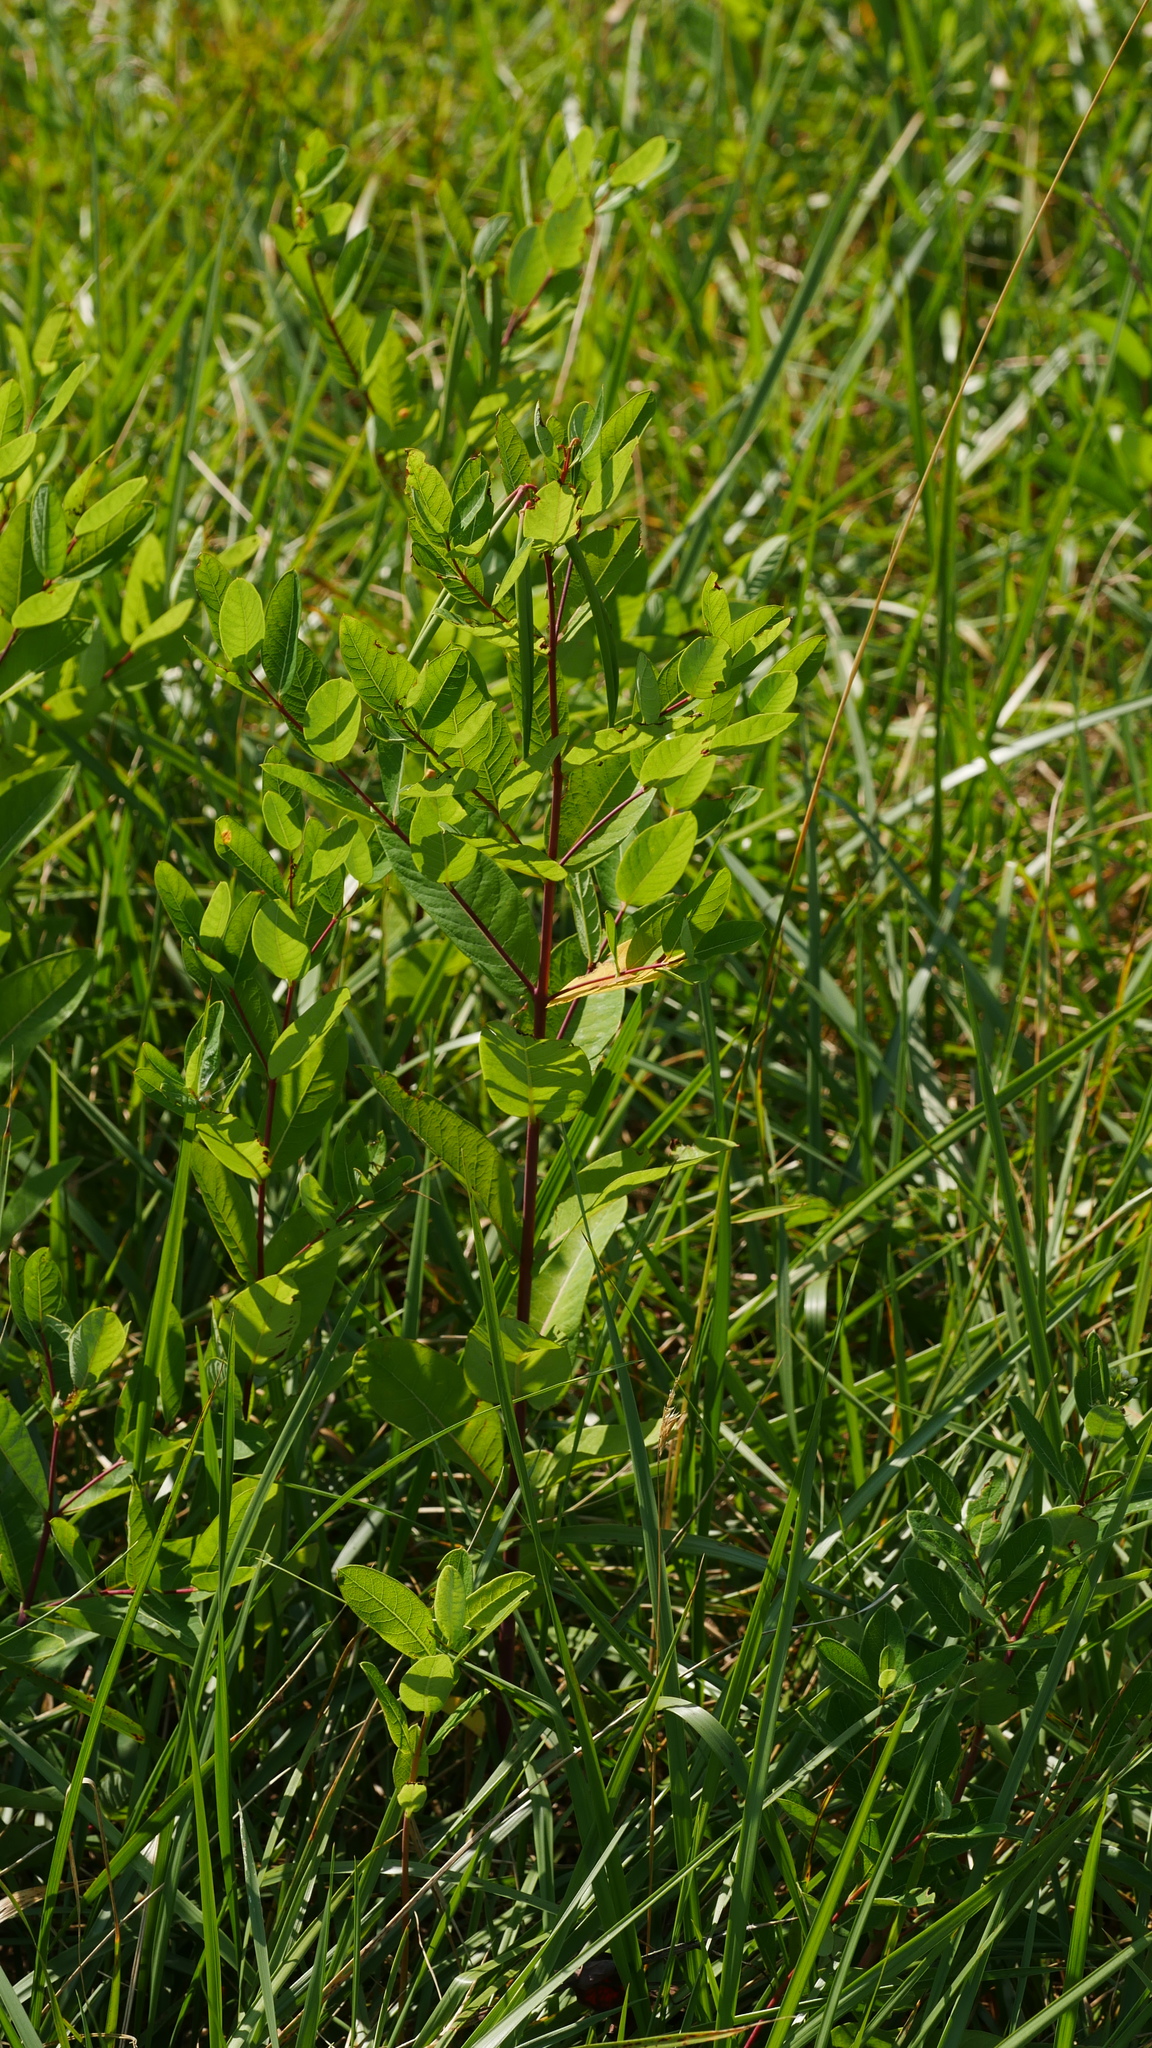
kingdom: Plantae
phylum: Tracheophyta
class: Magnoliopsida
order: Gentianales
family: Apocynaceae
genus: Apocynum
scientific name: Apocynum cannabinum
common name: Hemp dogbane
